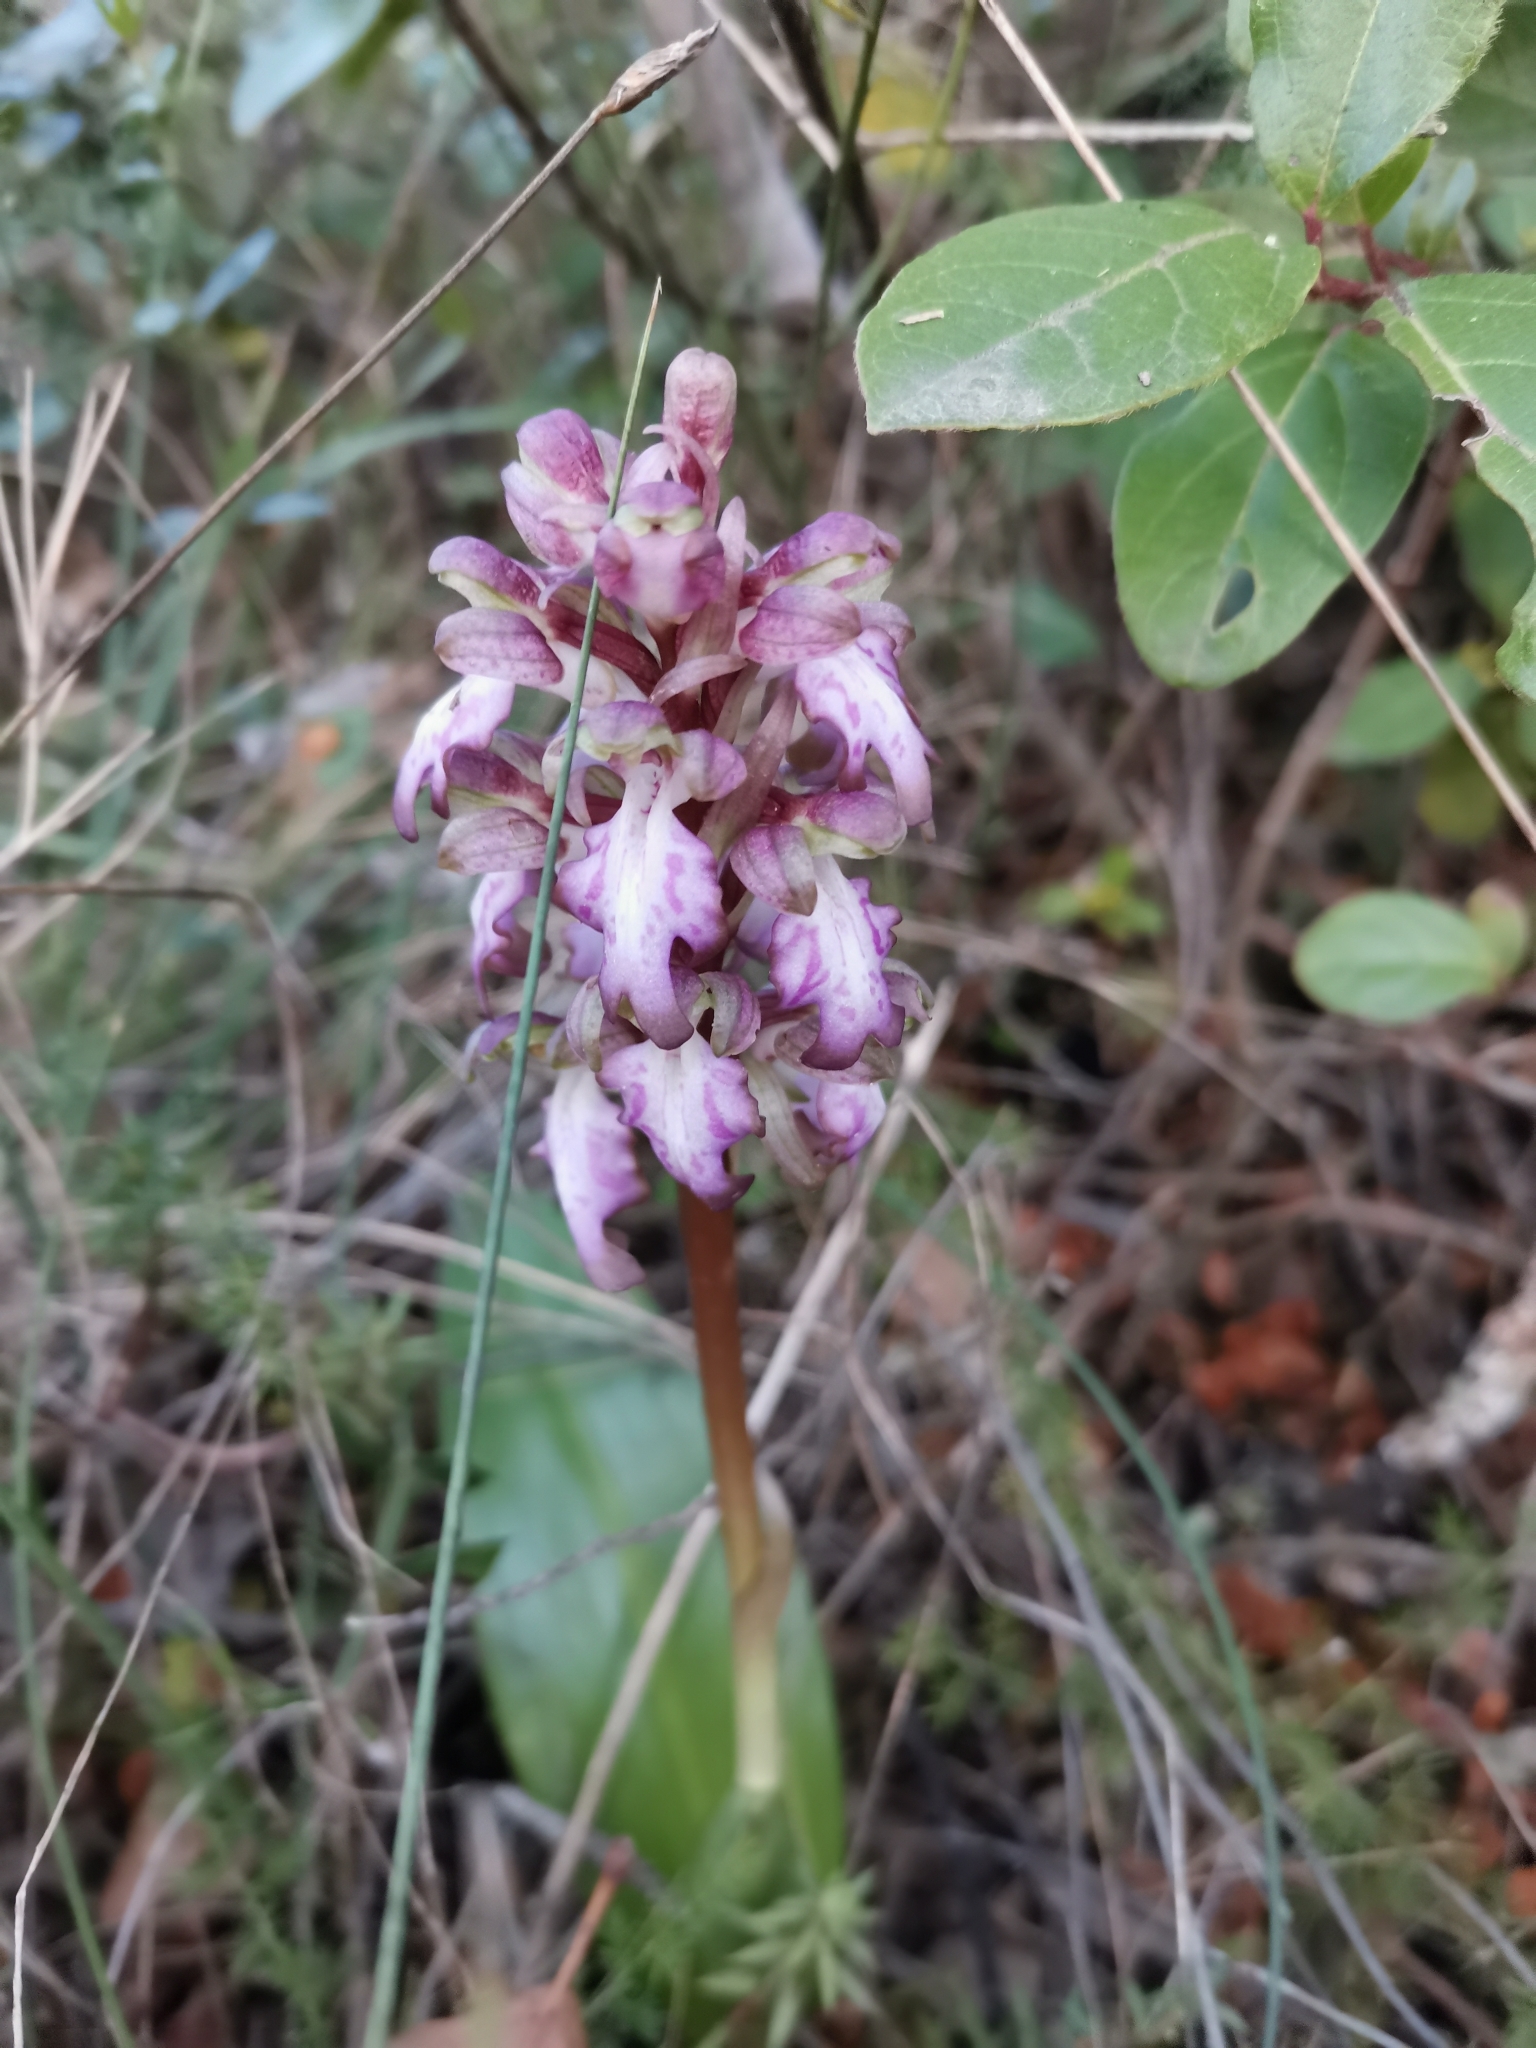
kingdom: Plantae
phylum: Tracheophyta
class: Liliopsida
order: Asparagales
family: Orchidaceae
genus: Himantoglossum
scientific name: Himantoglossum robertianum
